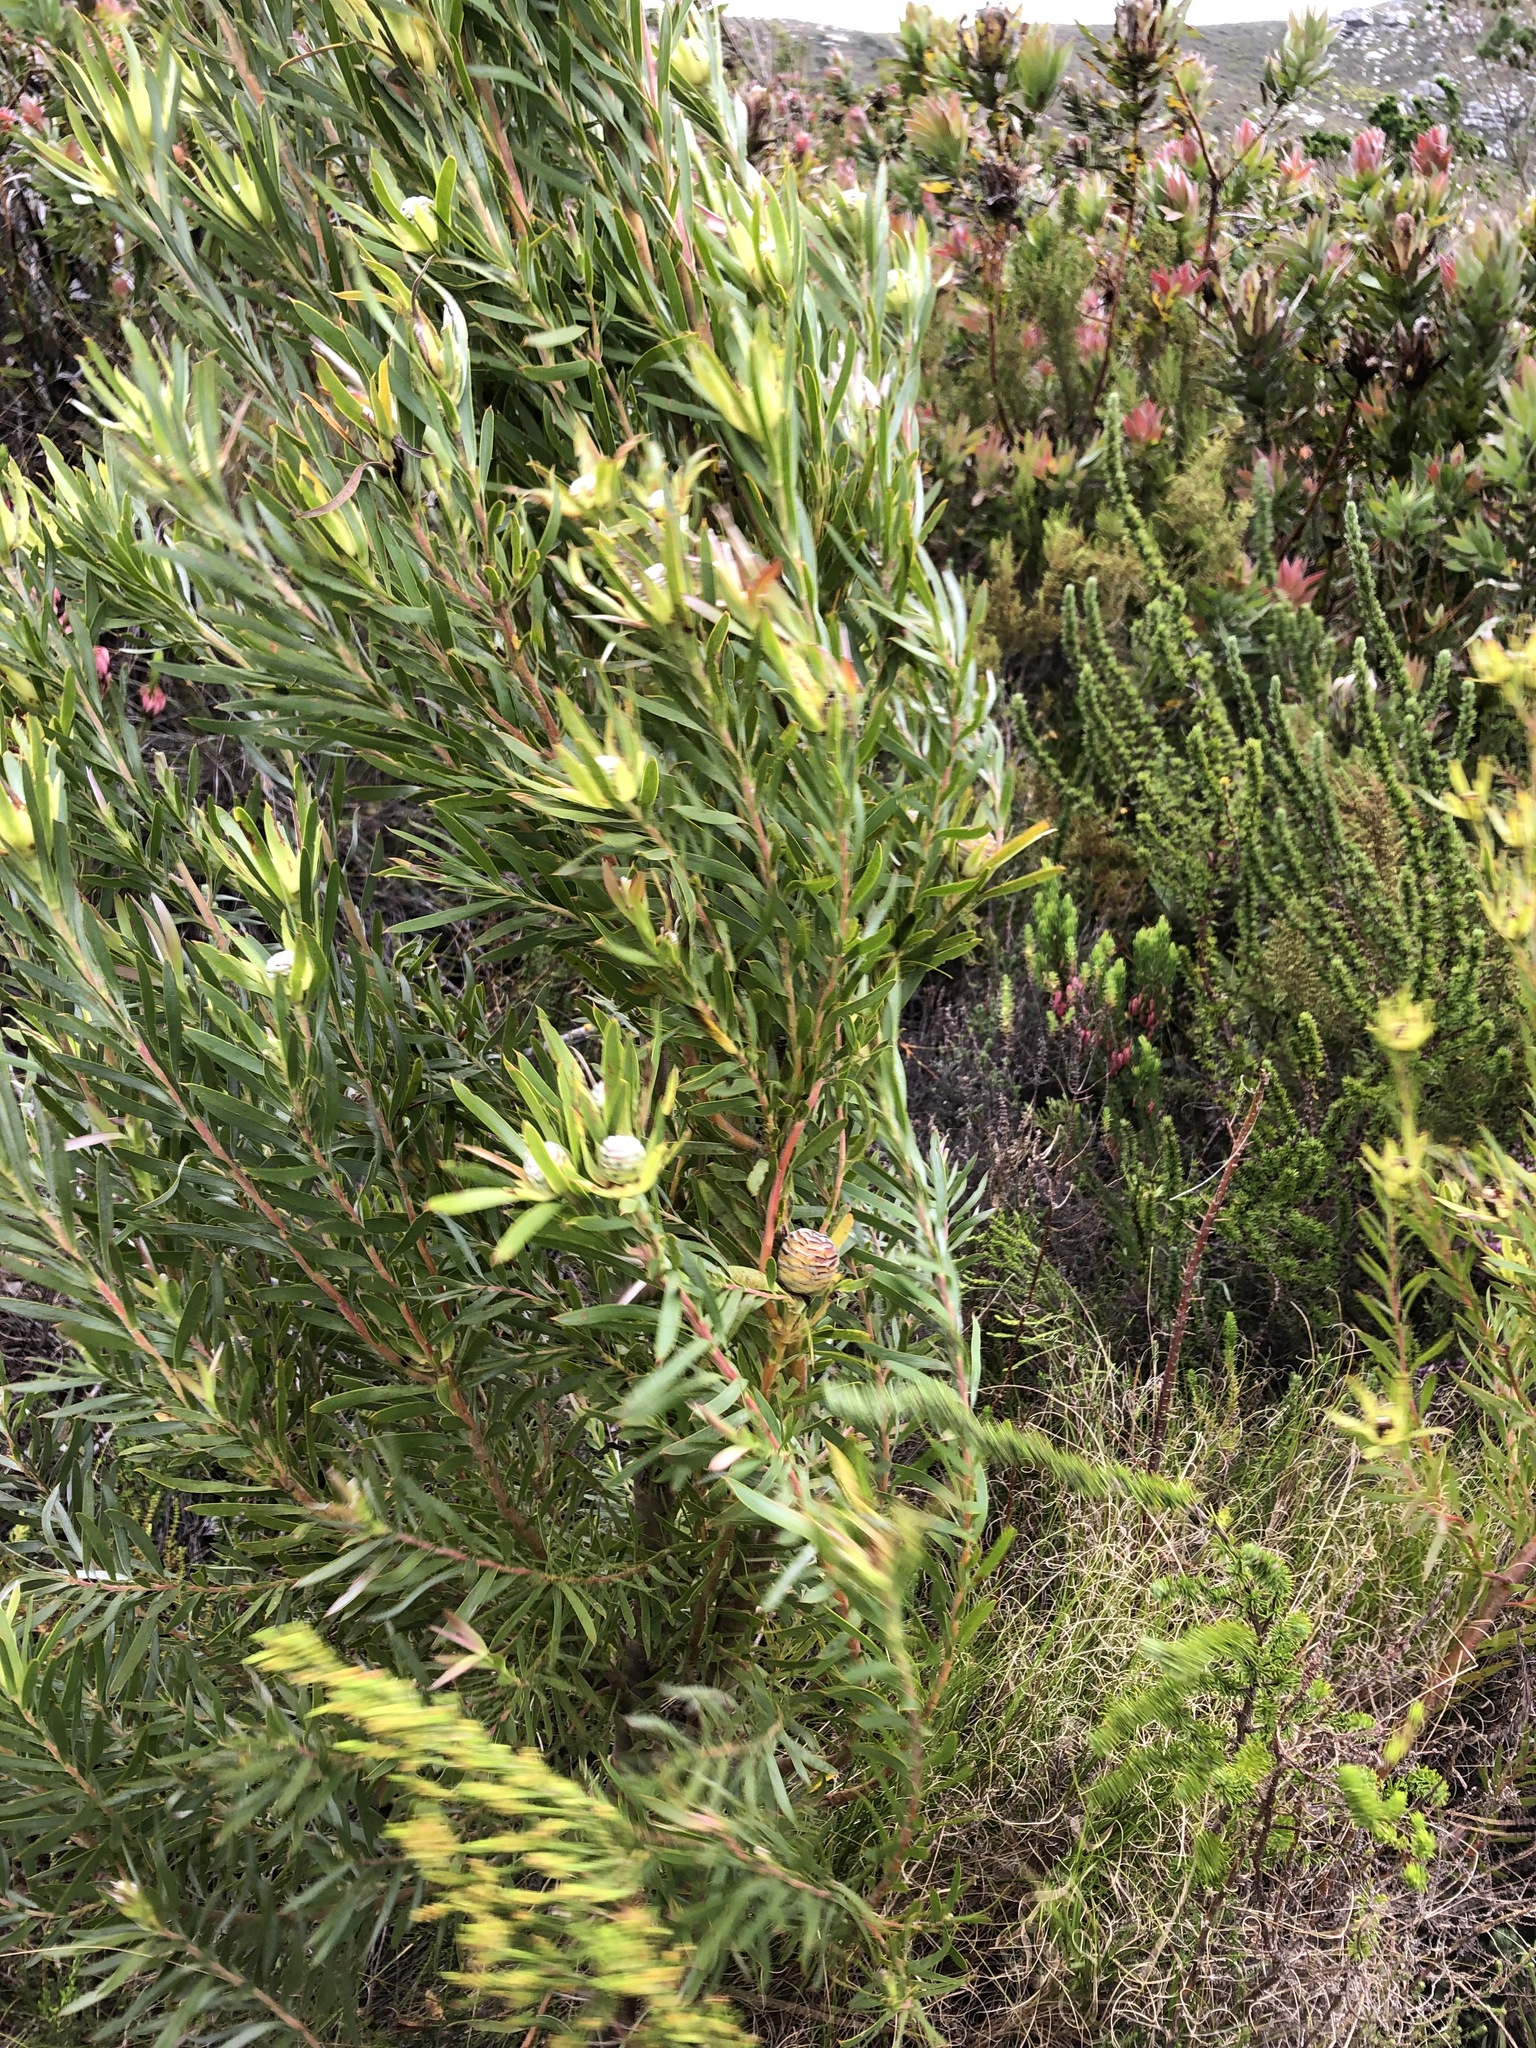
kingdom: Plantae
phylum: Tracheophyta
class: Magnoliopsida
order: Proteales
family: Proteaceae
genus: Leucadendron
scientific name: Leucadendron xanthoconus
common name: Sickle-leaf conebush
